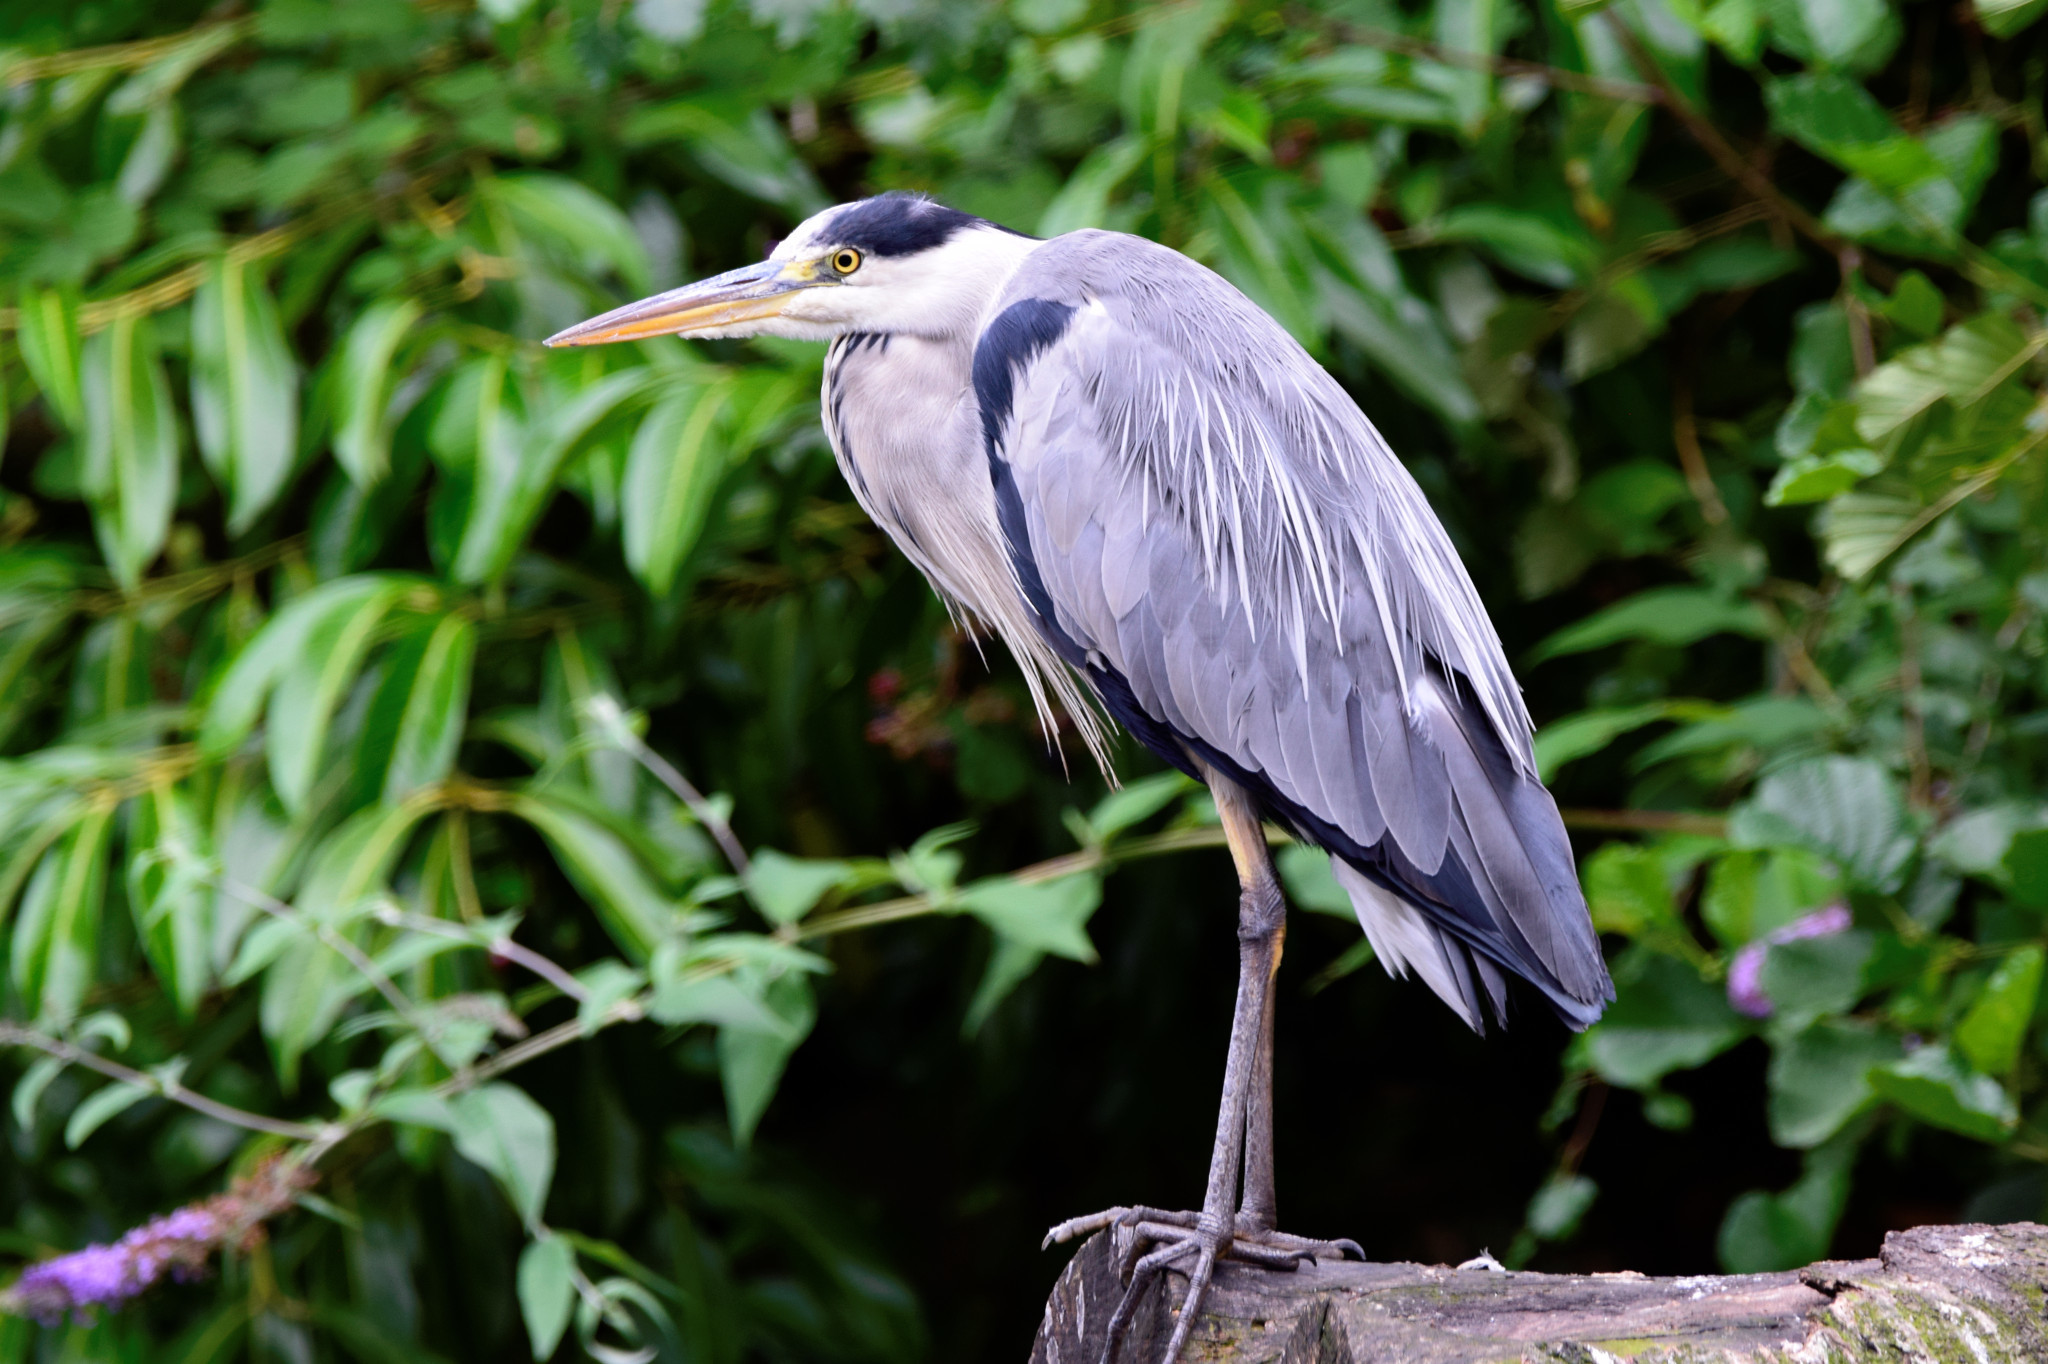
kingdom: Animalia
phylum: Chordata
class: Aves
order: Pelecaniformes
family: Ardeidae
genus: Ardea
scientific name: Ardea cinerea
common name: Grey heron
